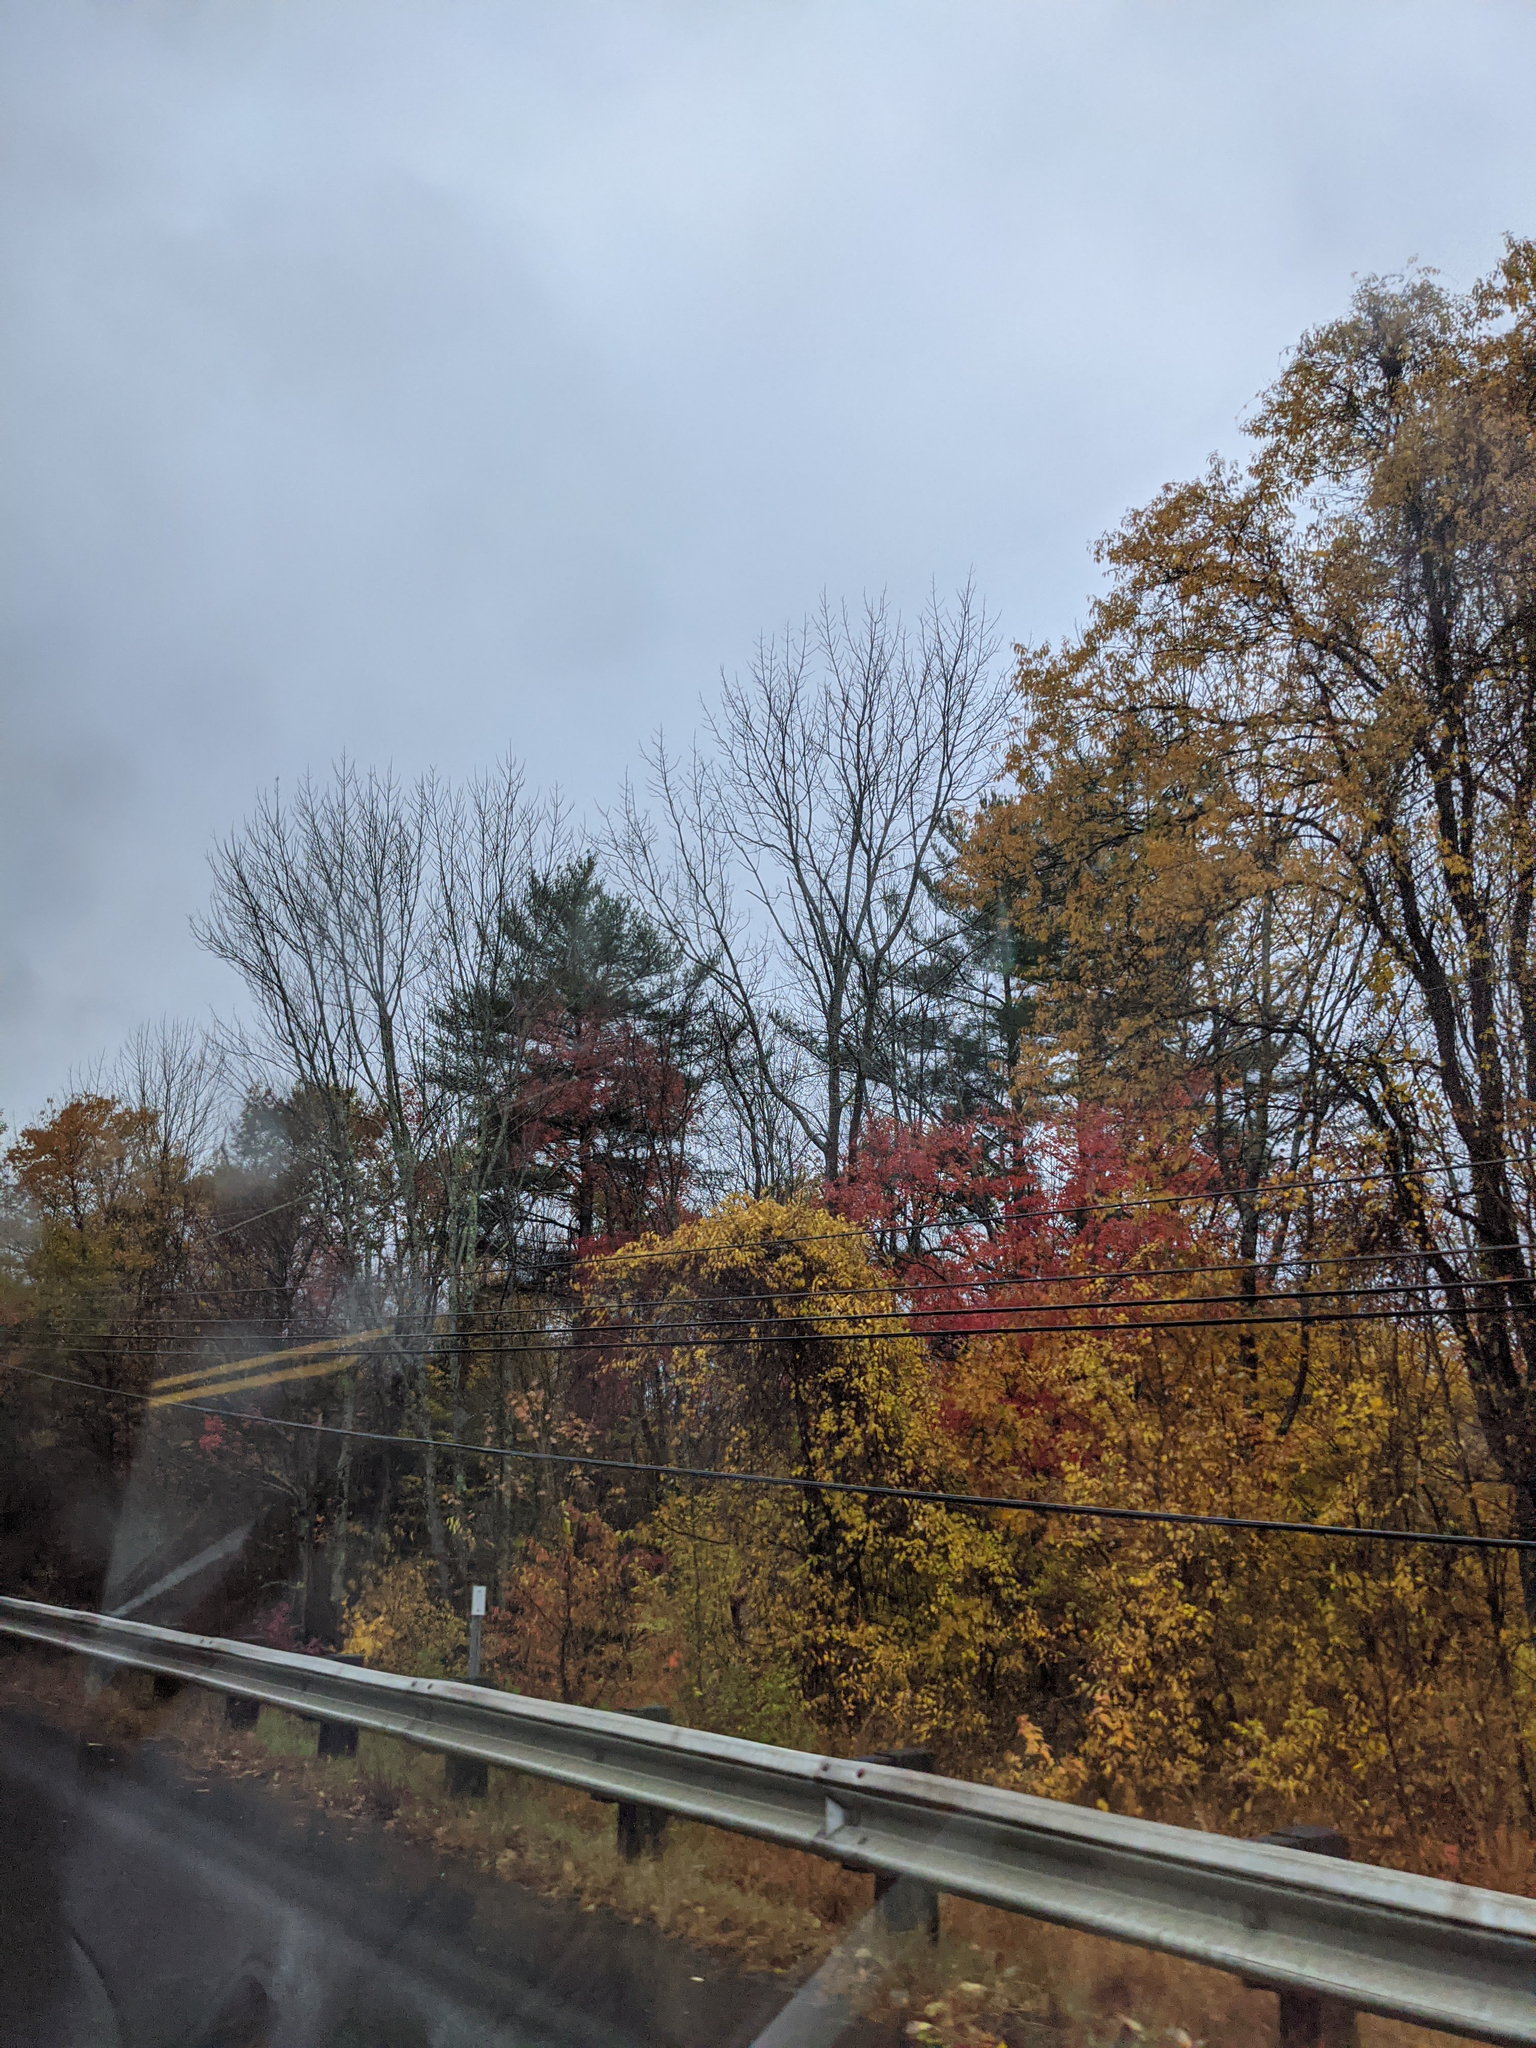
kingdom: Plantae
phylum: Tracheophyta
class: Pinopsida
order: Pinales
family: Pinaceae
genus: Pinus
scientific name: Pinus strobus
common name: Weymouth pine
